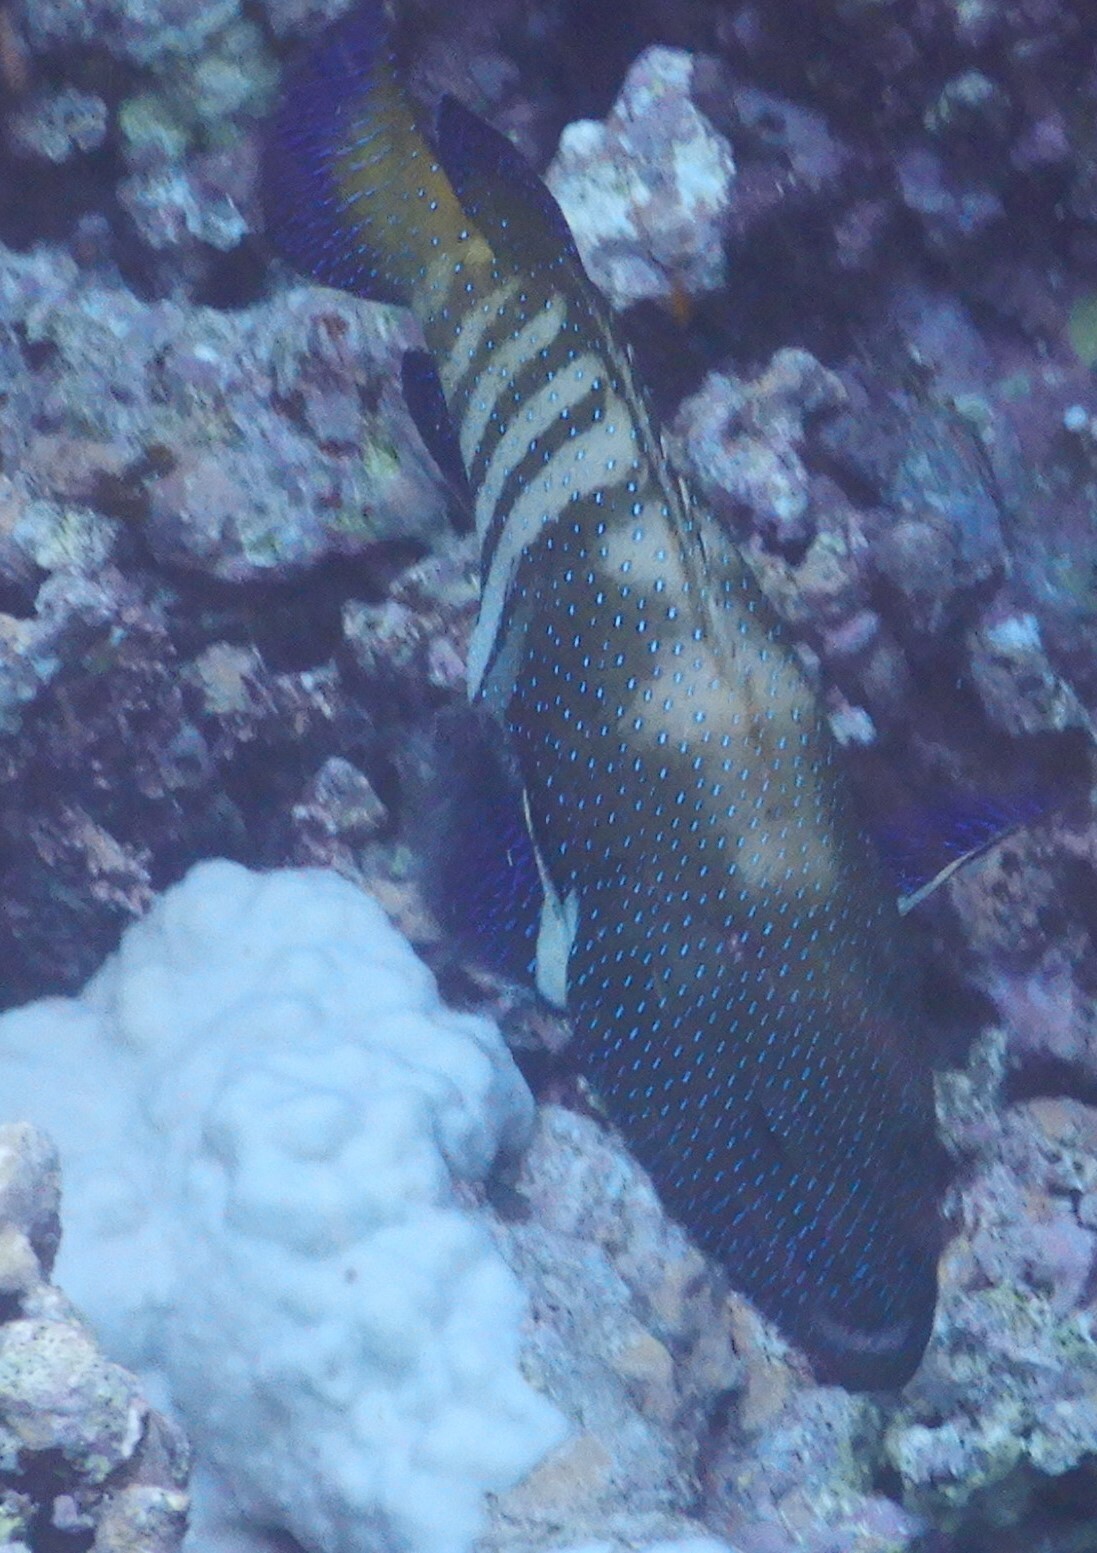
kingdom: Animalia
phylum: Chordata
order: Perciformes
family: Serranidae
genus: Cephalopholis
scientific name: Cephalopholis argus
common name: Peacock grouper
